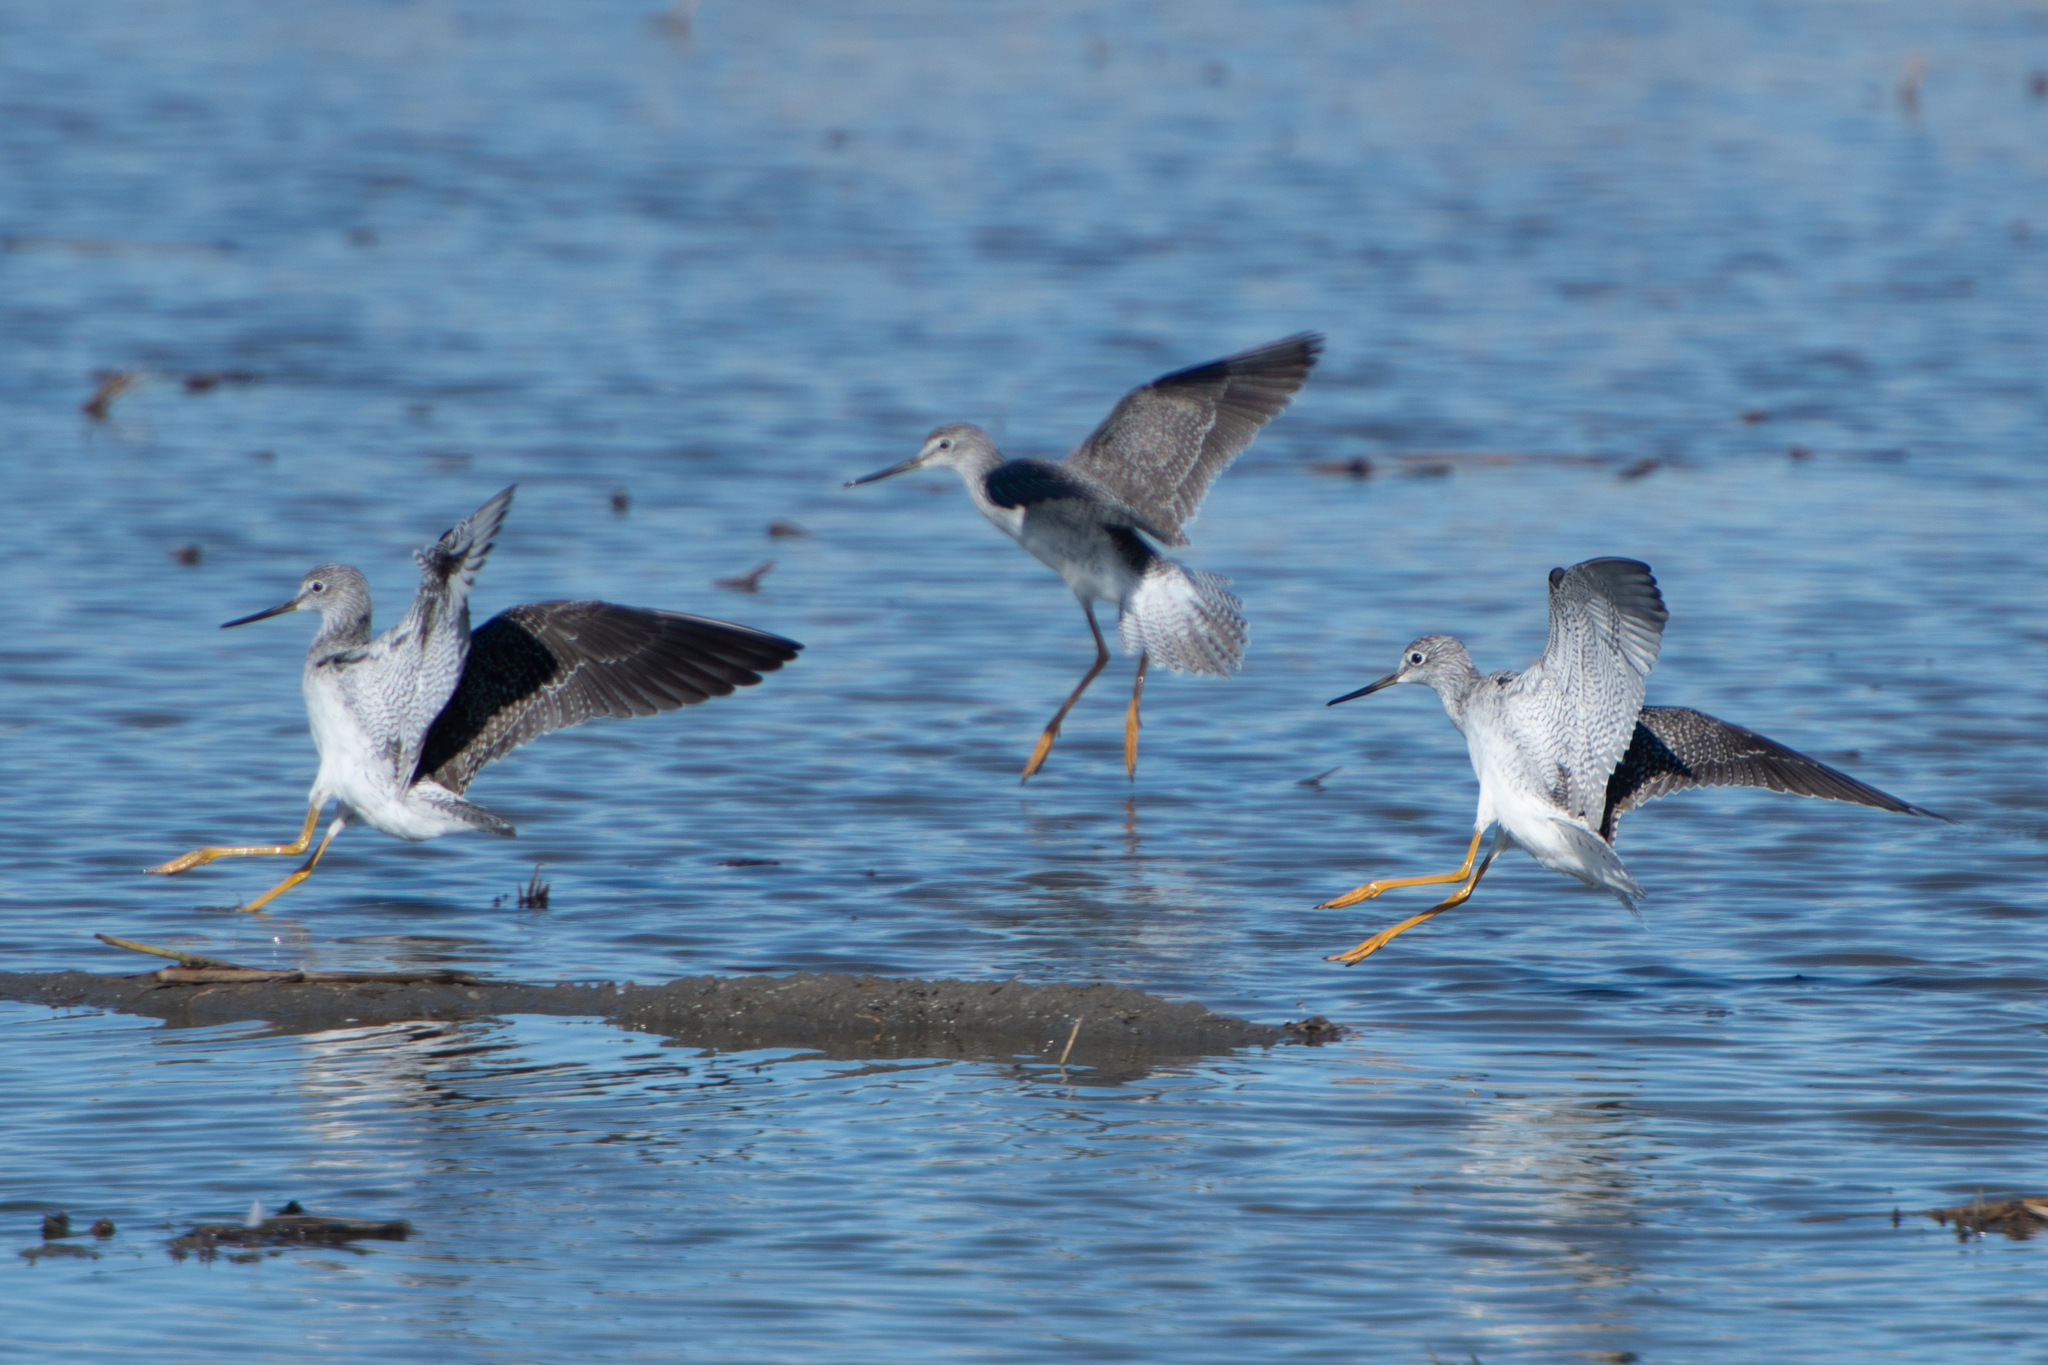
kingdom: Animalia
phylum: Chordata
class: Aves
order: Charadriiformes
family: Scolopacidae
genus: Tringa
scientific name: Tringa melanoleuca
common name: Greater yellowlegs
